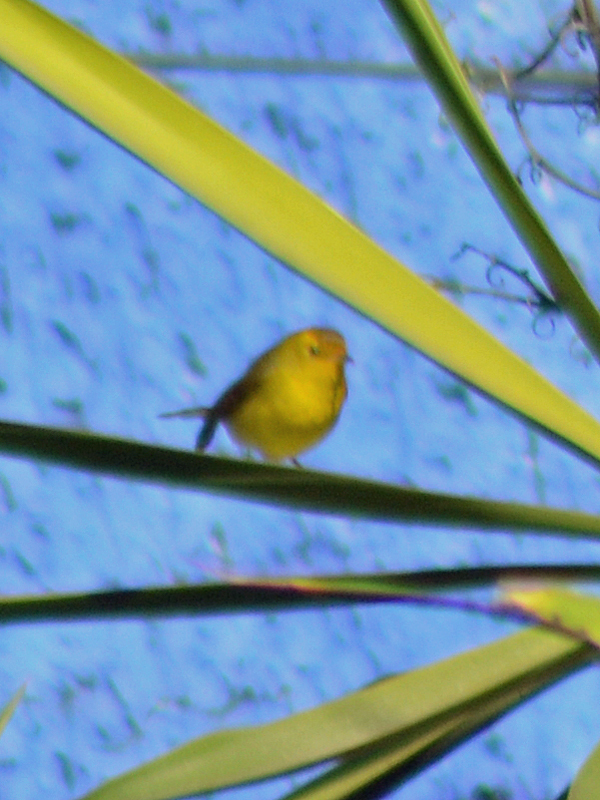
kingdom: Animalia
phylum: Chordata
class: Aves
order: Passeriformes
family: Parulidae
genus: Cardellina
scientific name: Cardellina pusilla
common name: Wilson's warbler
